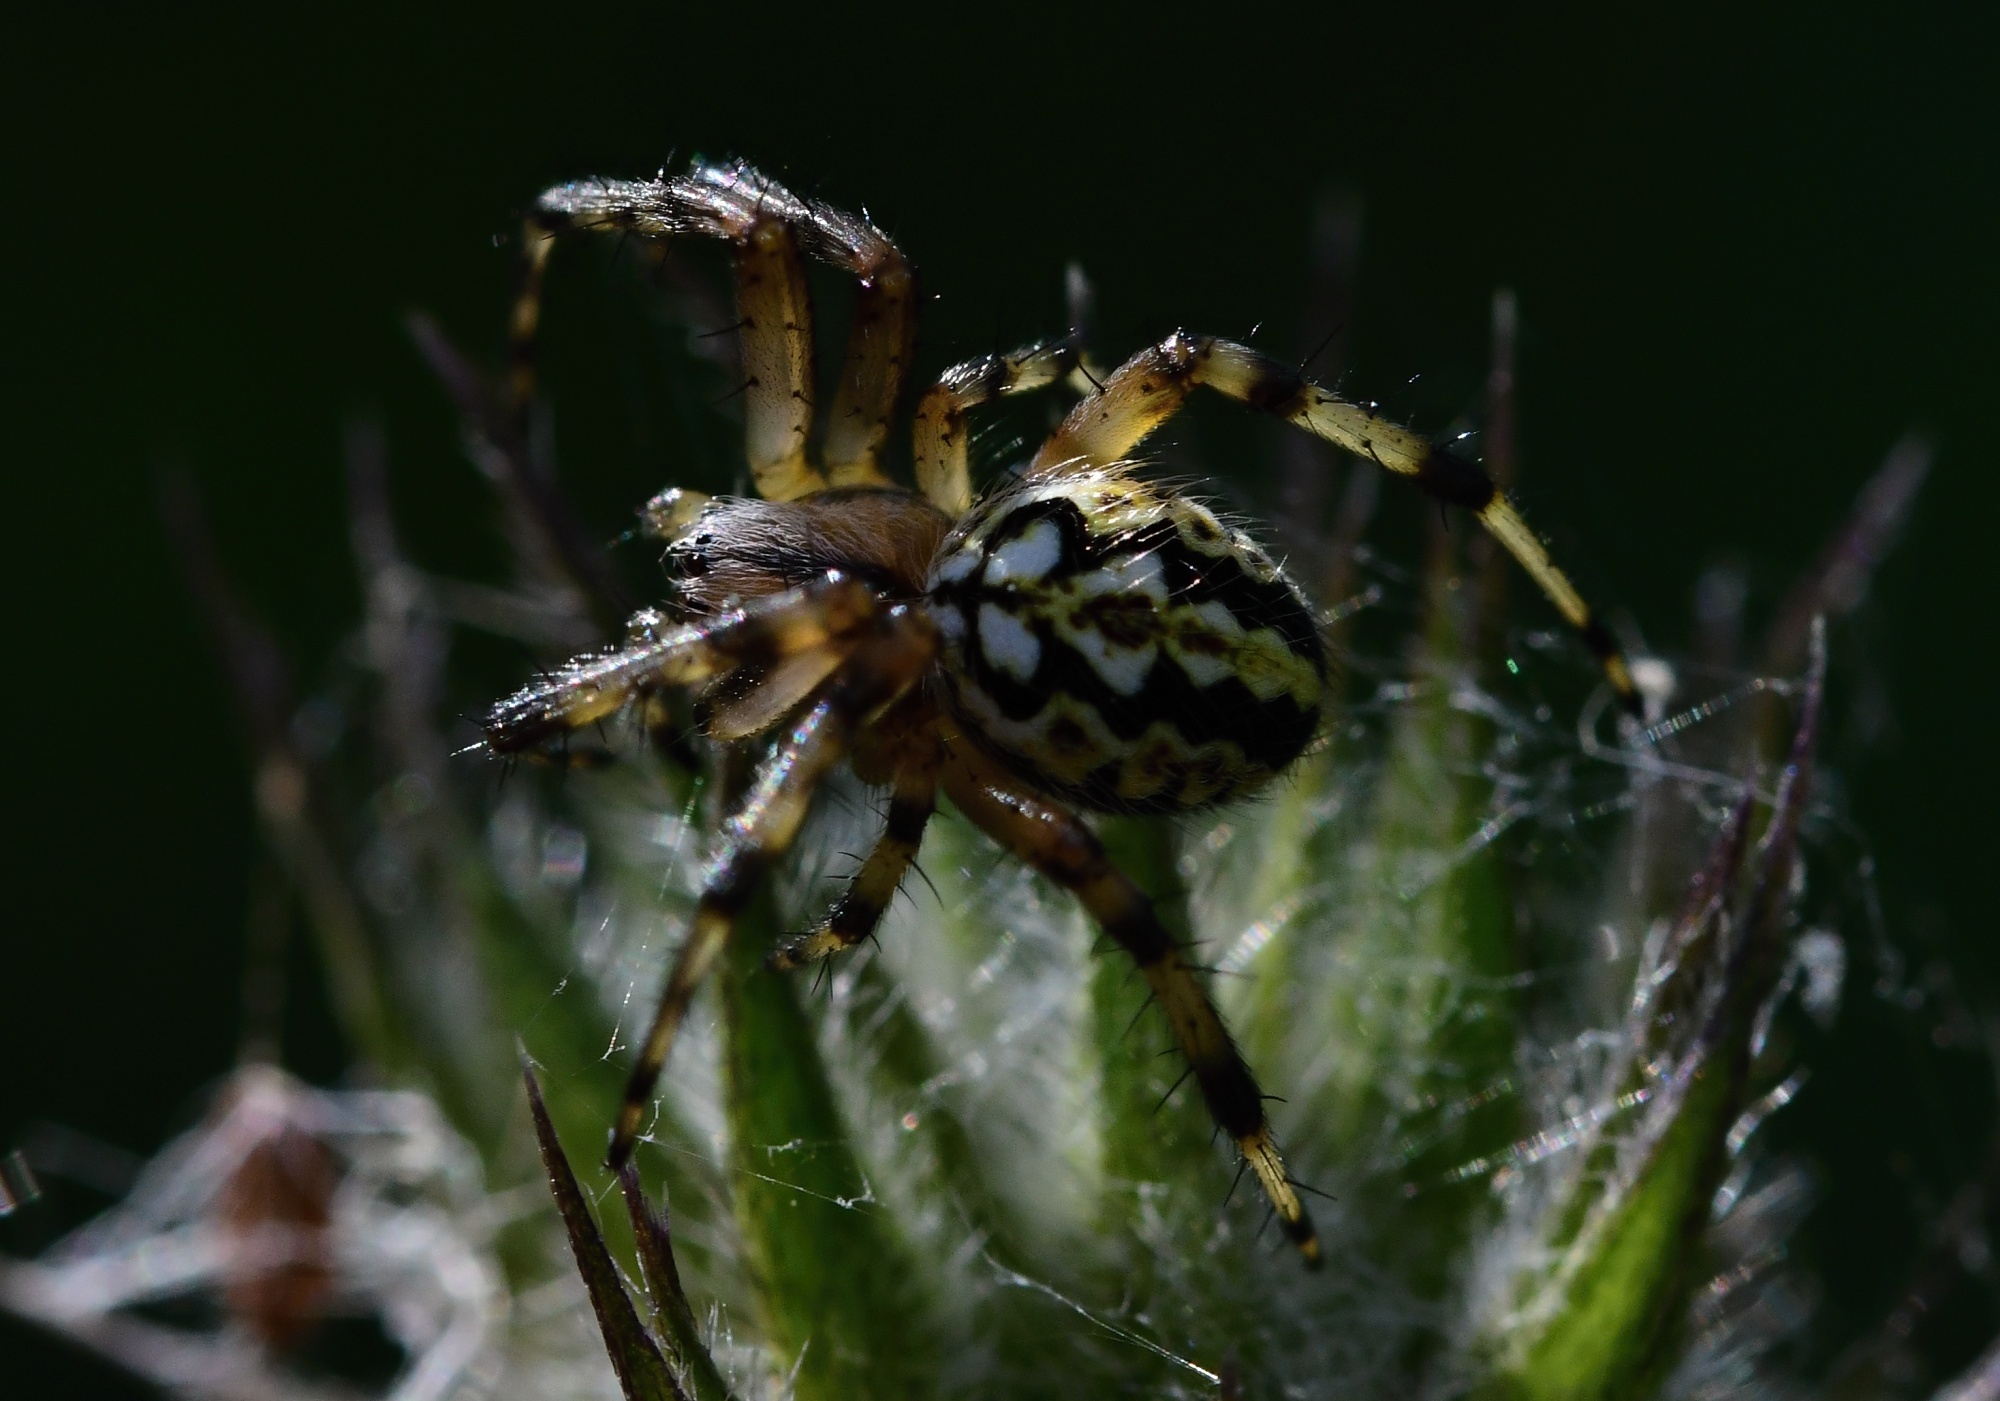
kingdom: Animalia
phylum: Arthropoda
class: Arachnida
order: Araneae
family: Araneidae
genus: Neoscona
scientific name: Neoscona adianta
